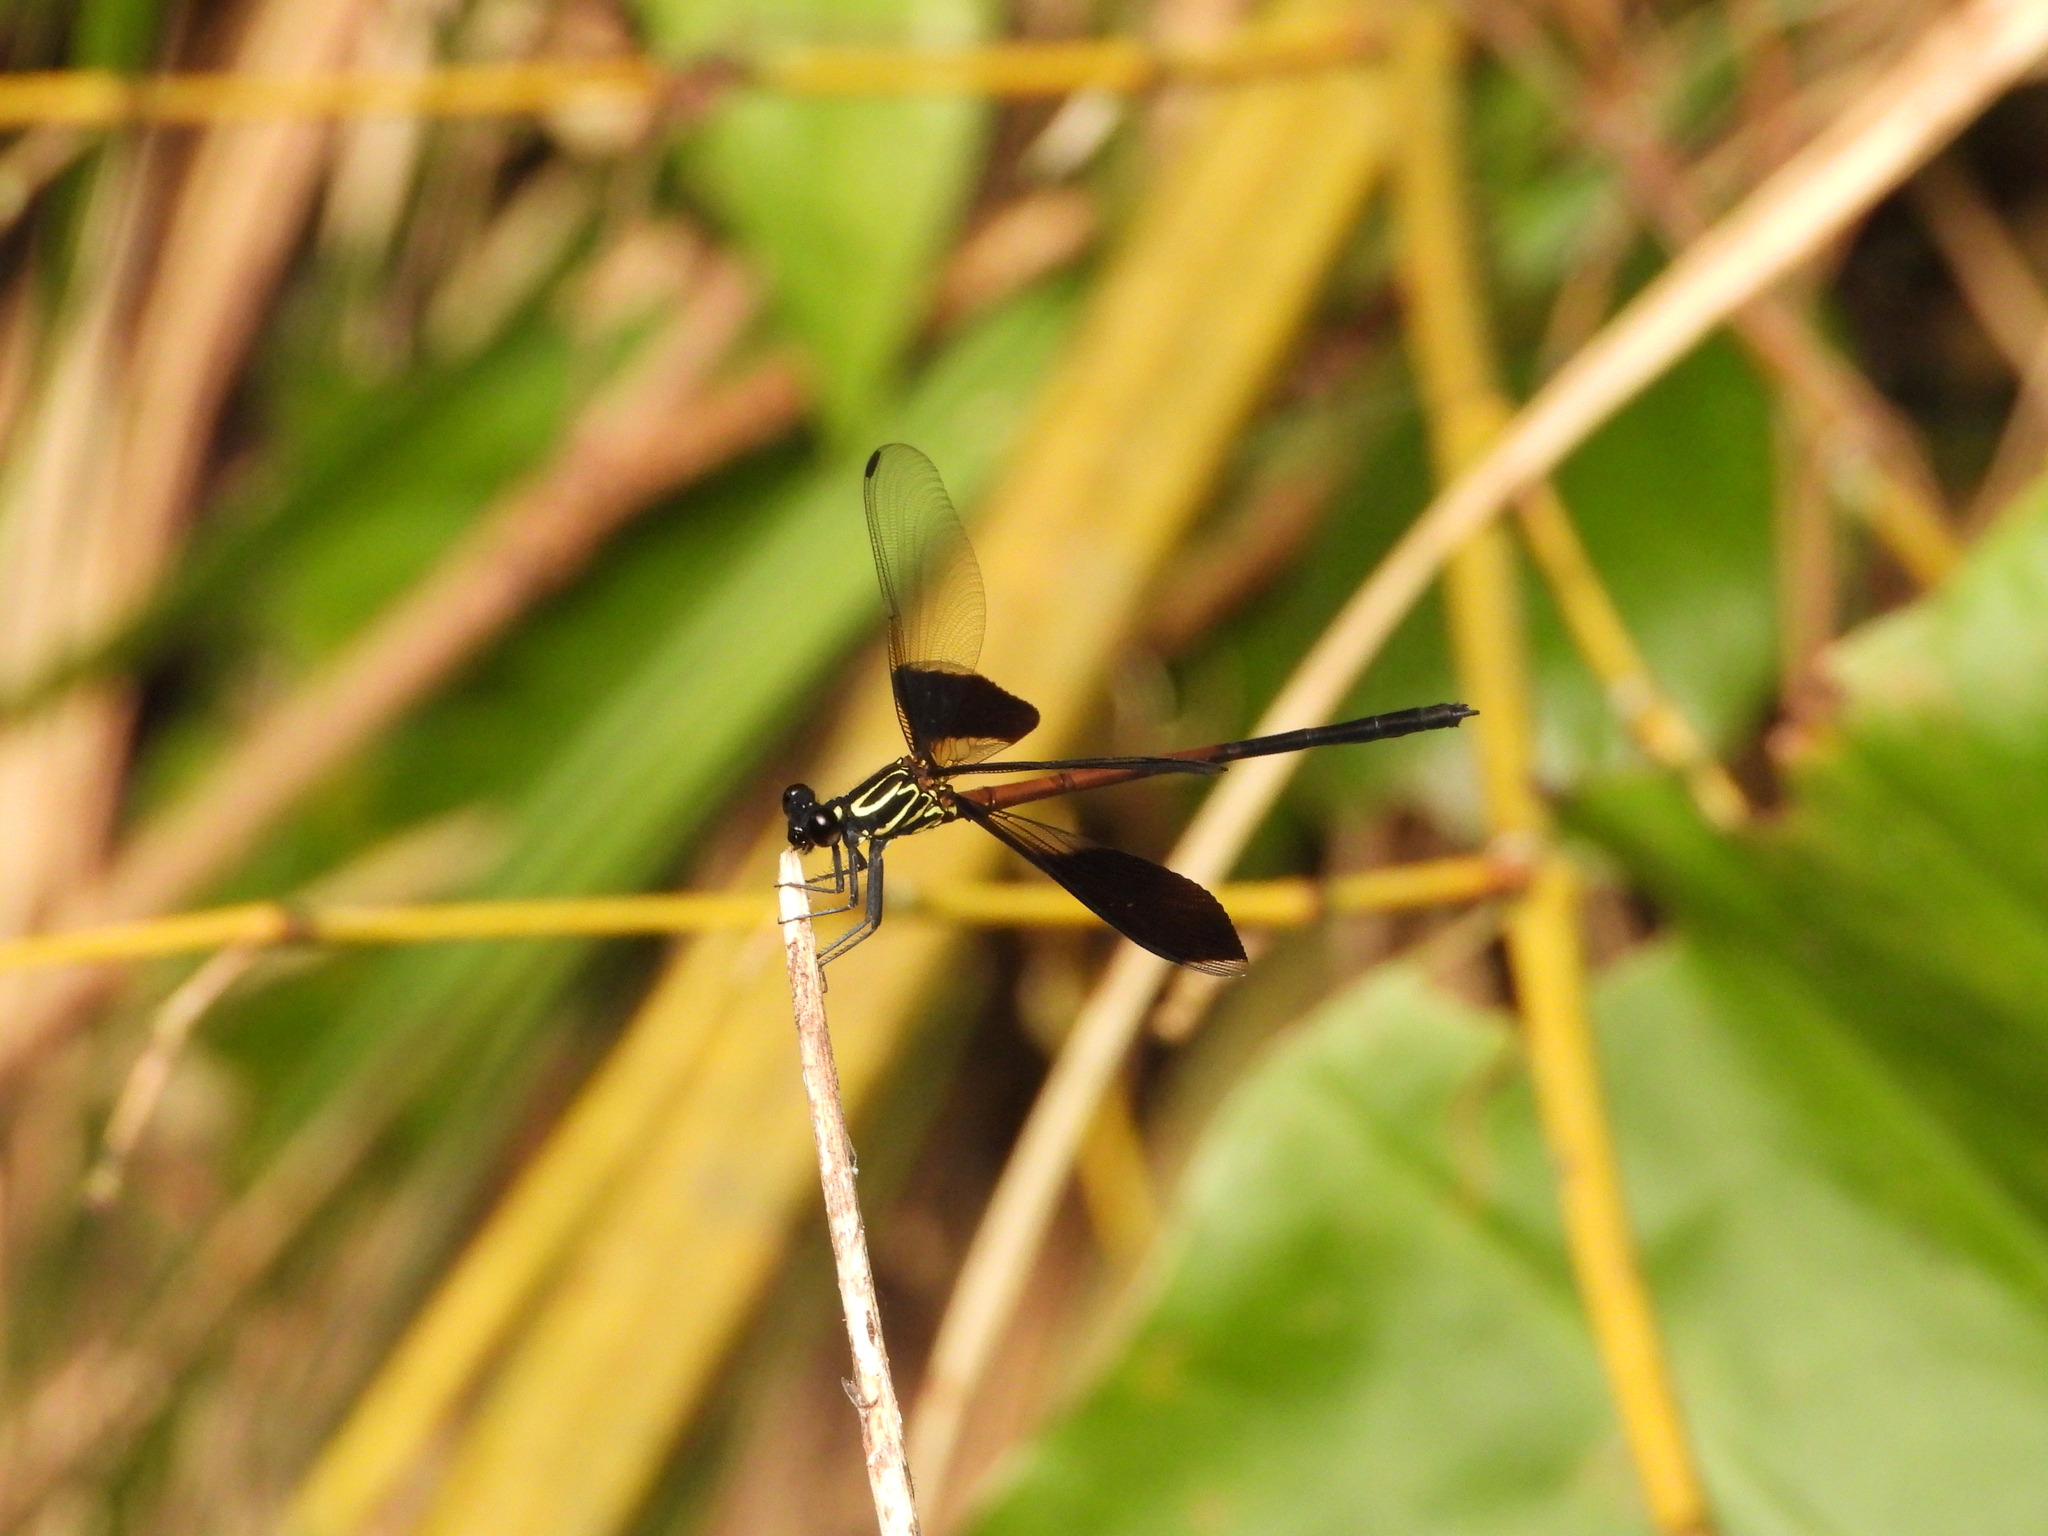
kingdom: Animalia
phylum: Arthropoda
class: Insecta
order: Odonata
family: Euphaeidae
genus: Euphaea
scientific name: Euphaea formosa
